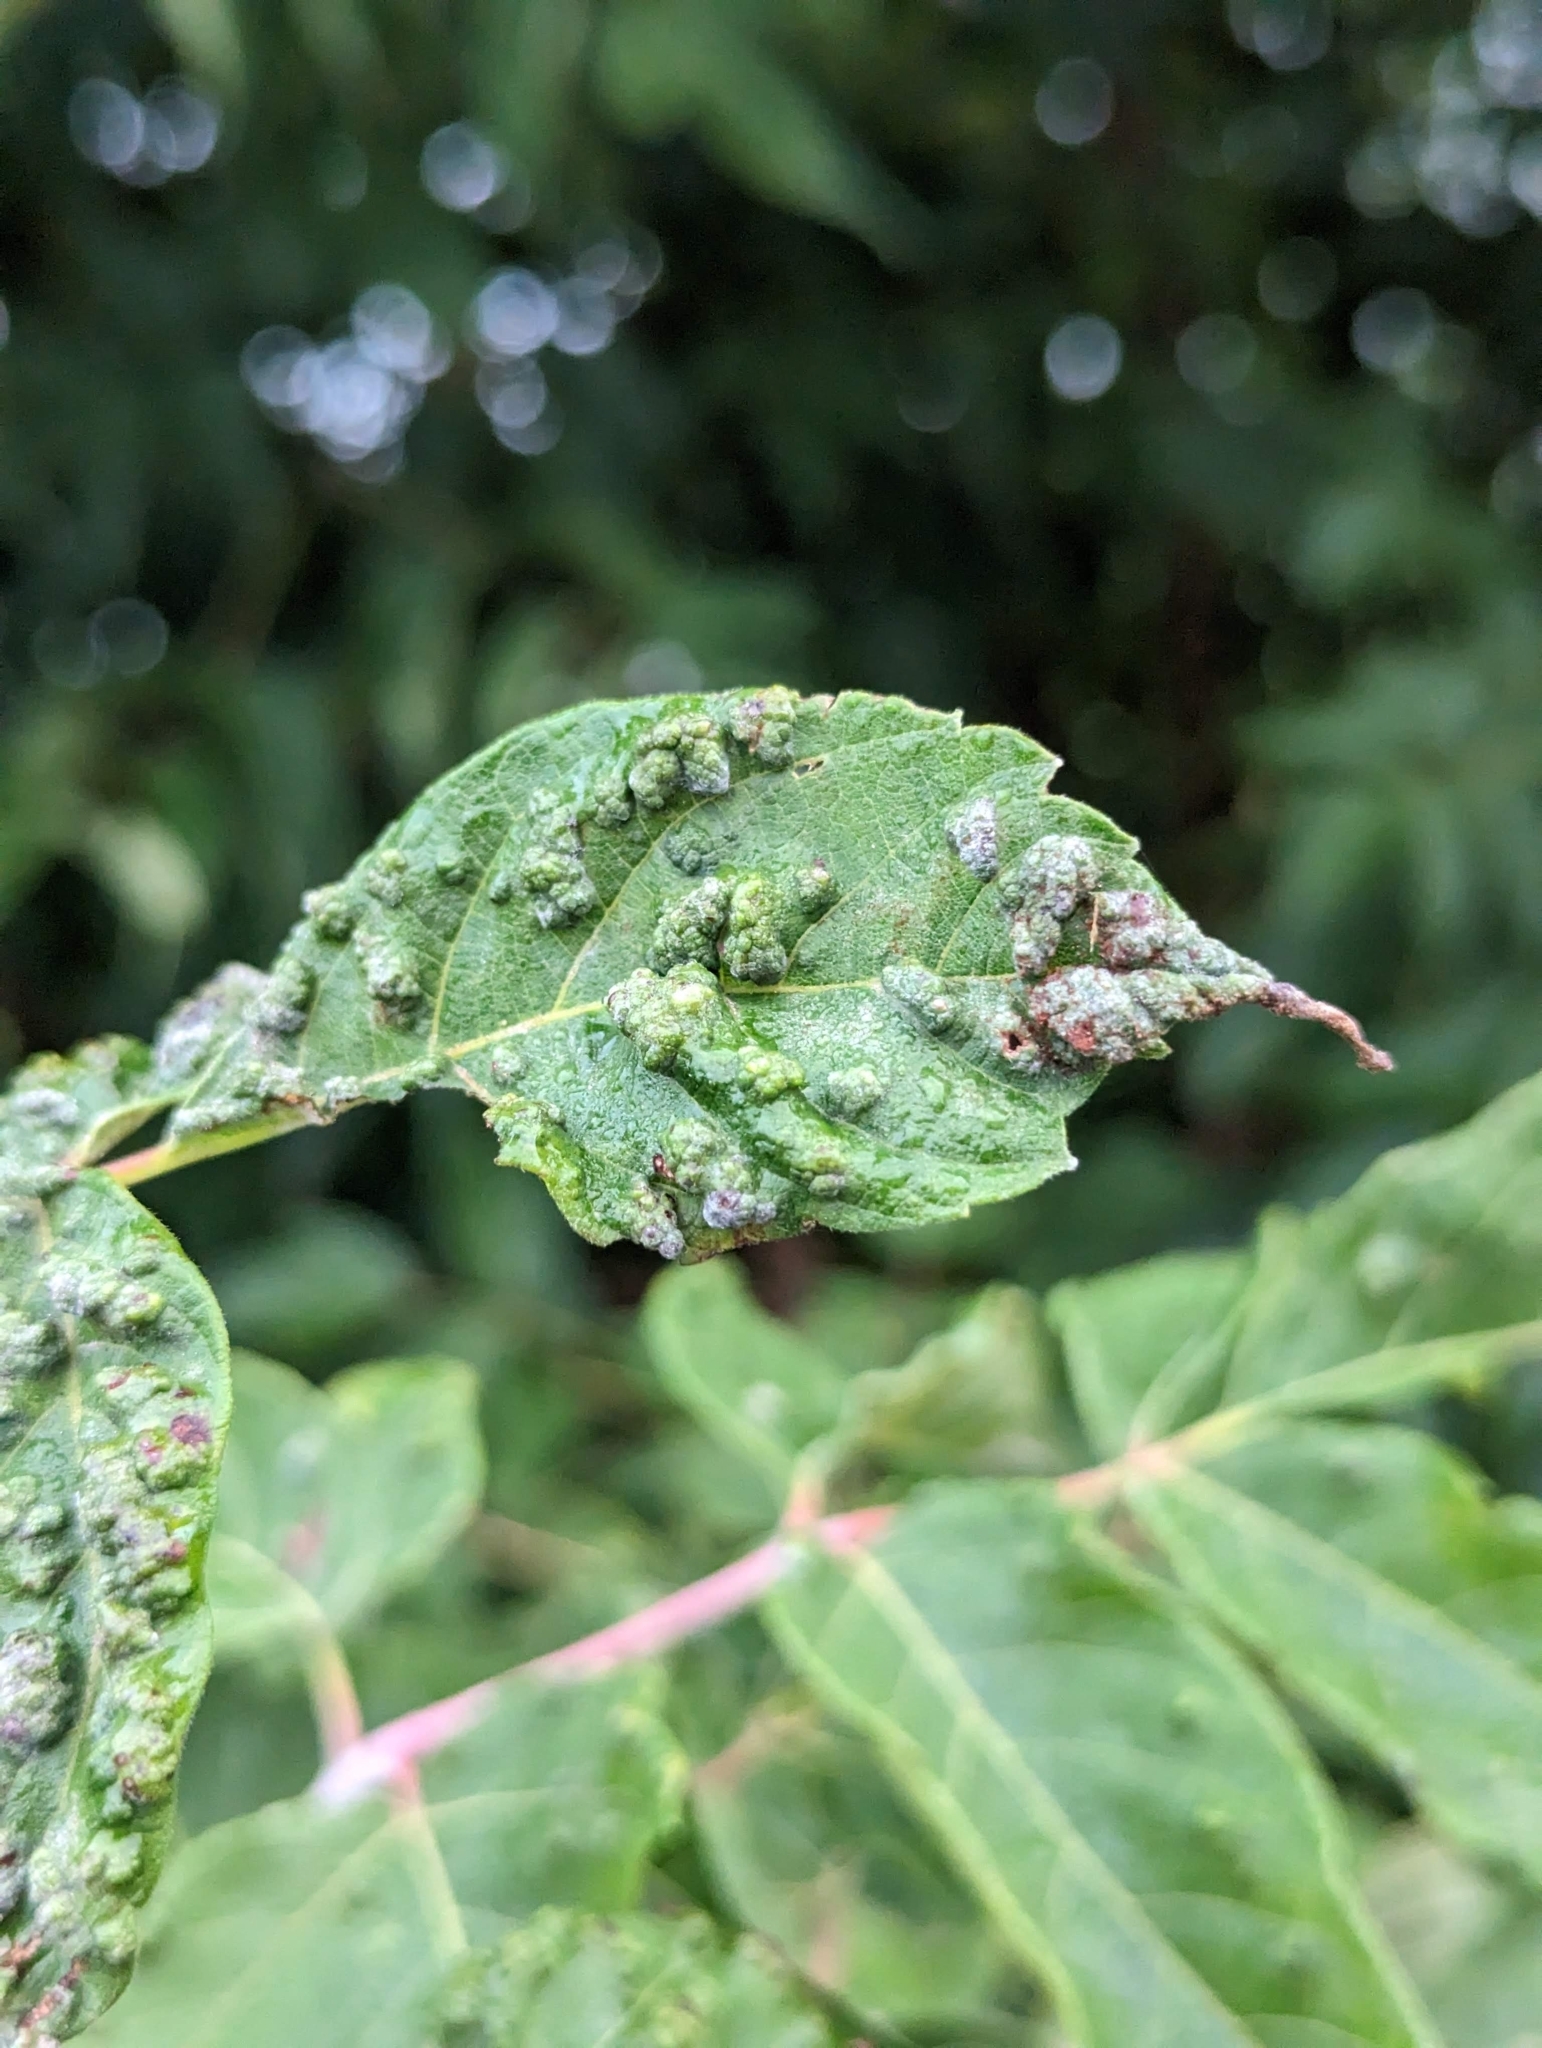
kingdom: Animalia
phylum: Arthropoda
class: Arachnida
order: Trombidiformes
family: Eriophyidae
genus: Aceria
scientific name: Aceria
